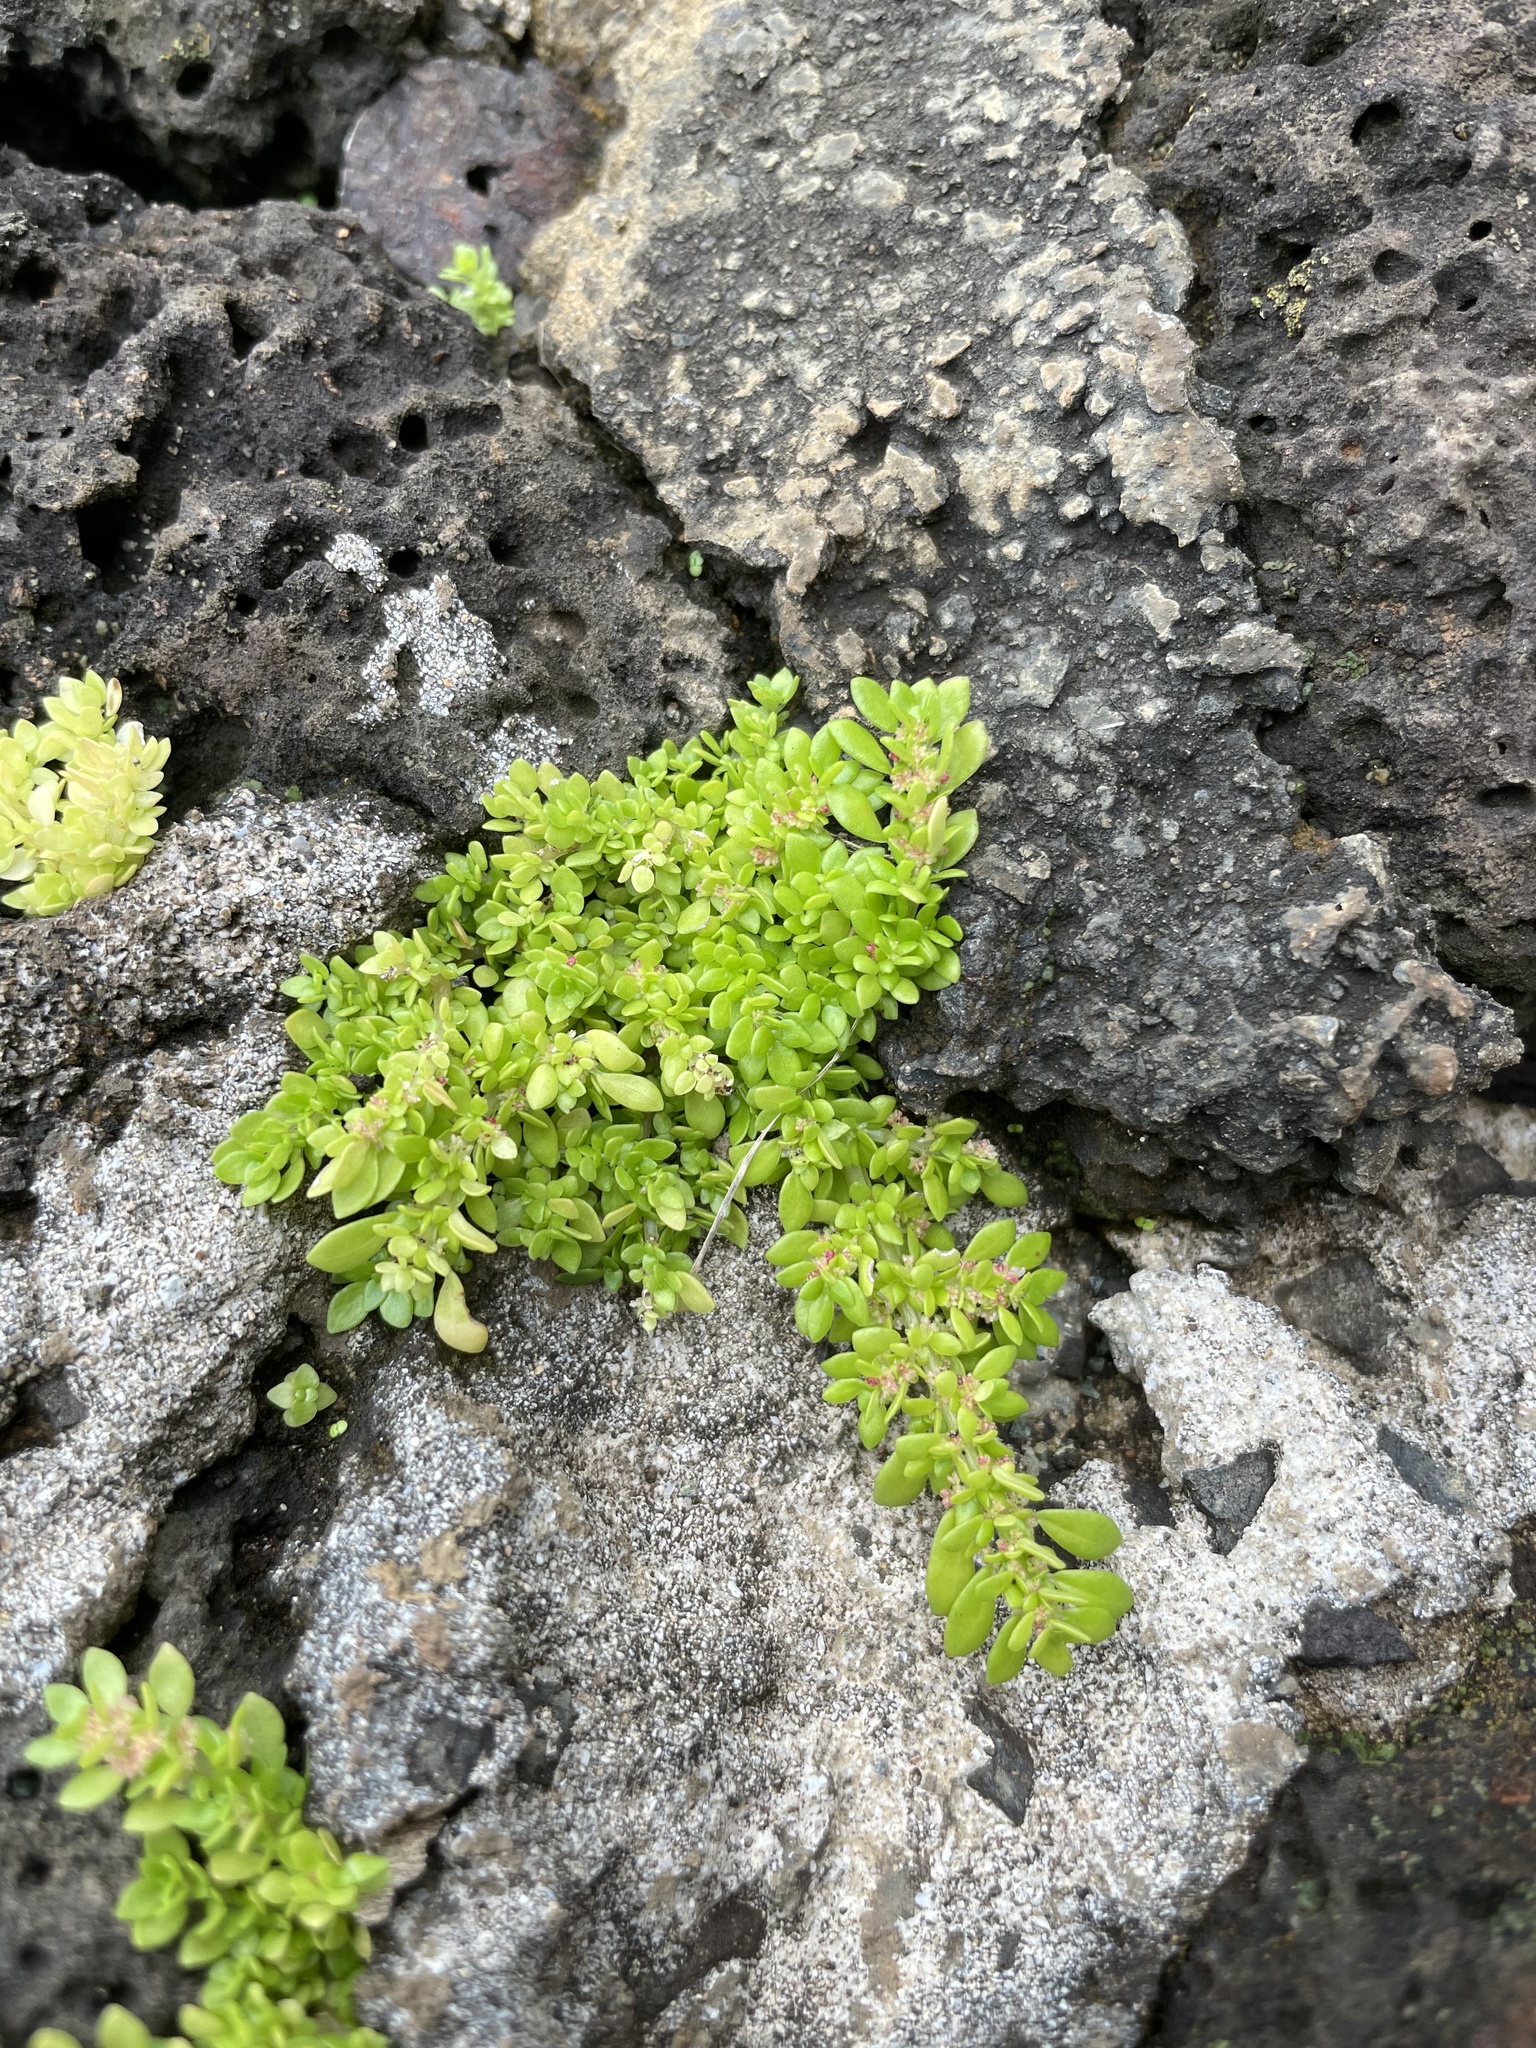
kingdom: Plantae
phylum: Tracheophyta
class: Magnoliopsida
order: Rosales
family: Urticaceae
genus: Pilea
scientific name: Pilea microphylla
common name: Artillery-plant
